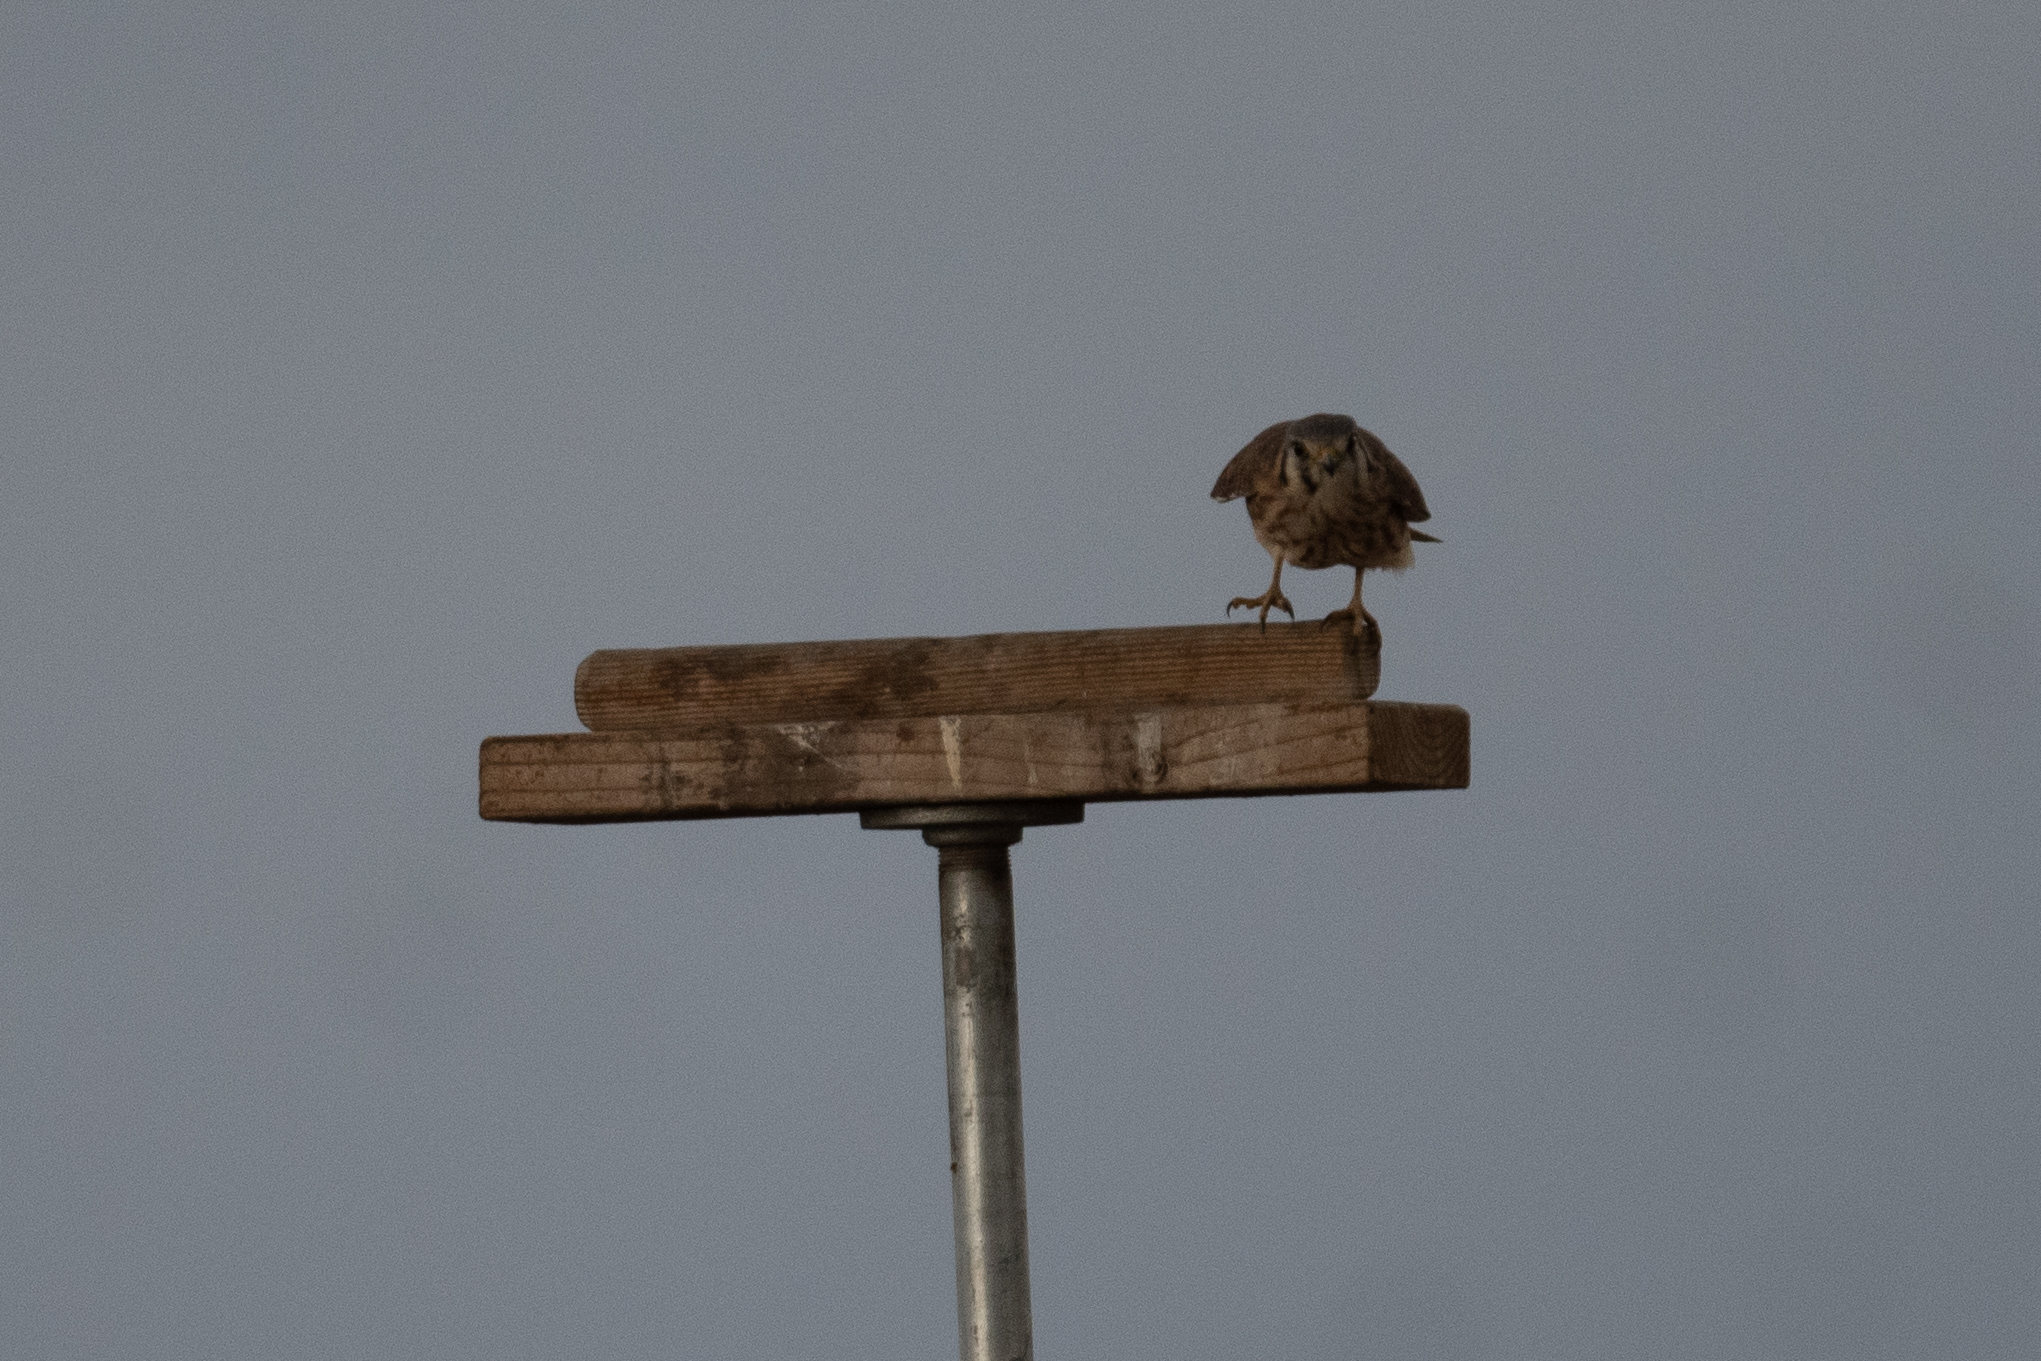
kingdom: Animalia
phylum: Chordata
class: Aves
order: Falconiformes
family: Falconidae
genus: Falco
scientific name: Falco sparverius
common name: American kestrel
